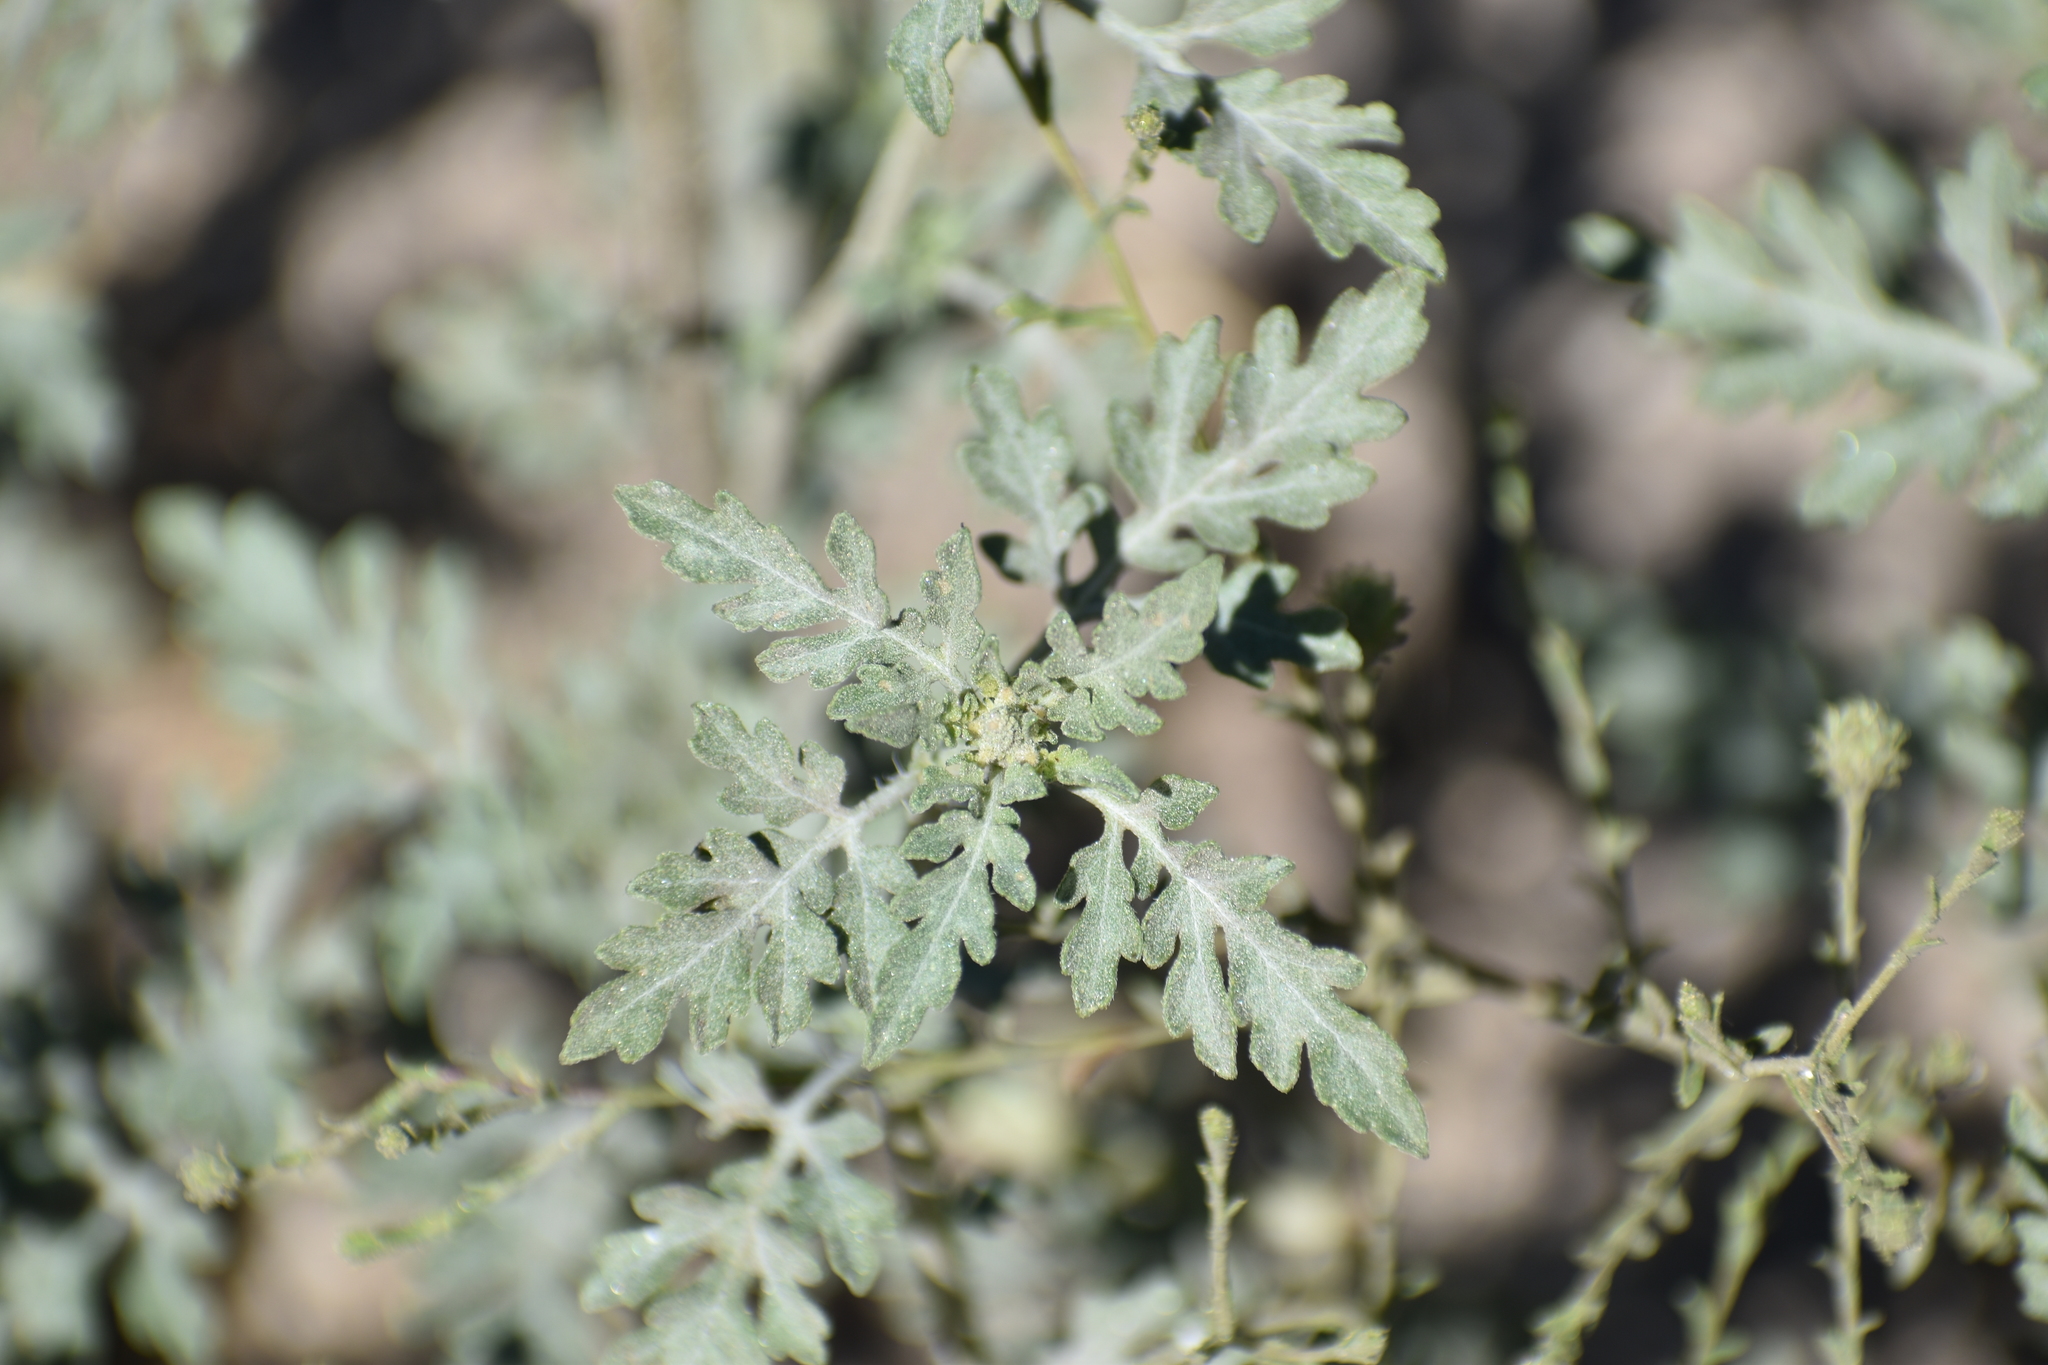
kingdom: Plantae
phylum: Tracheophyta
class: Magnoliopsida
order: Asterales
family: Asteraceae
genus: Lessingia
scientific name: Lessingia glandulifera
